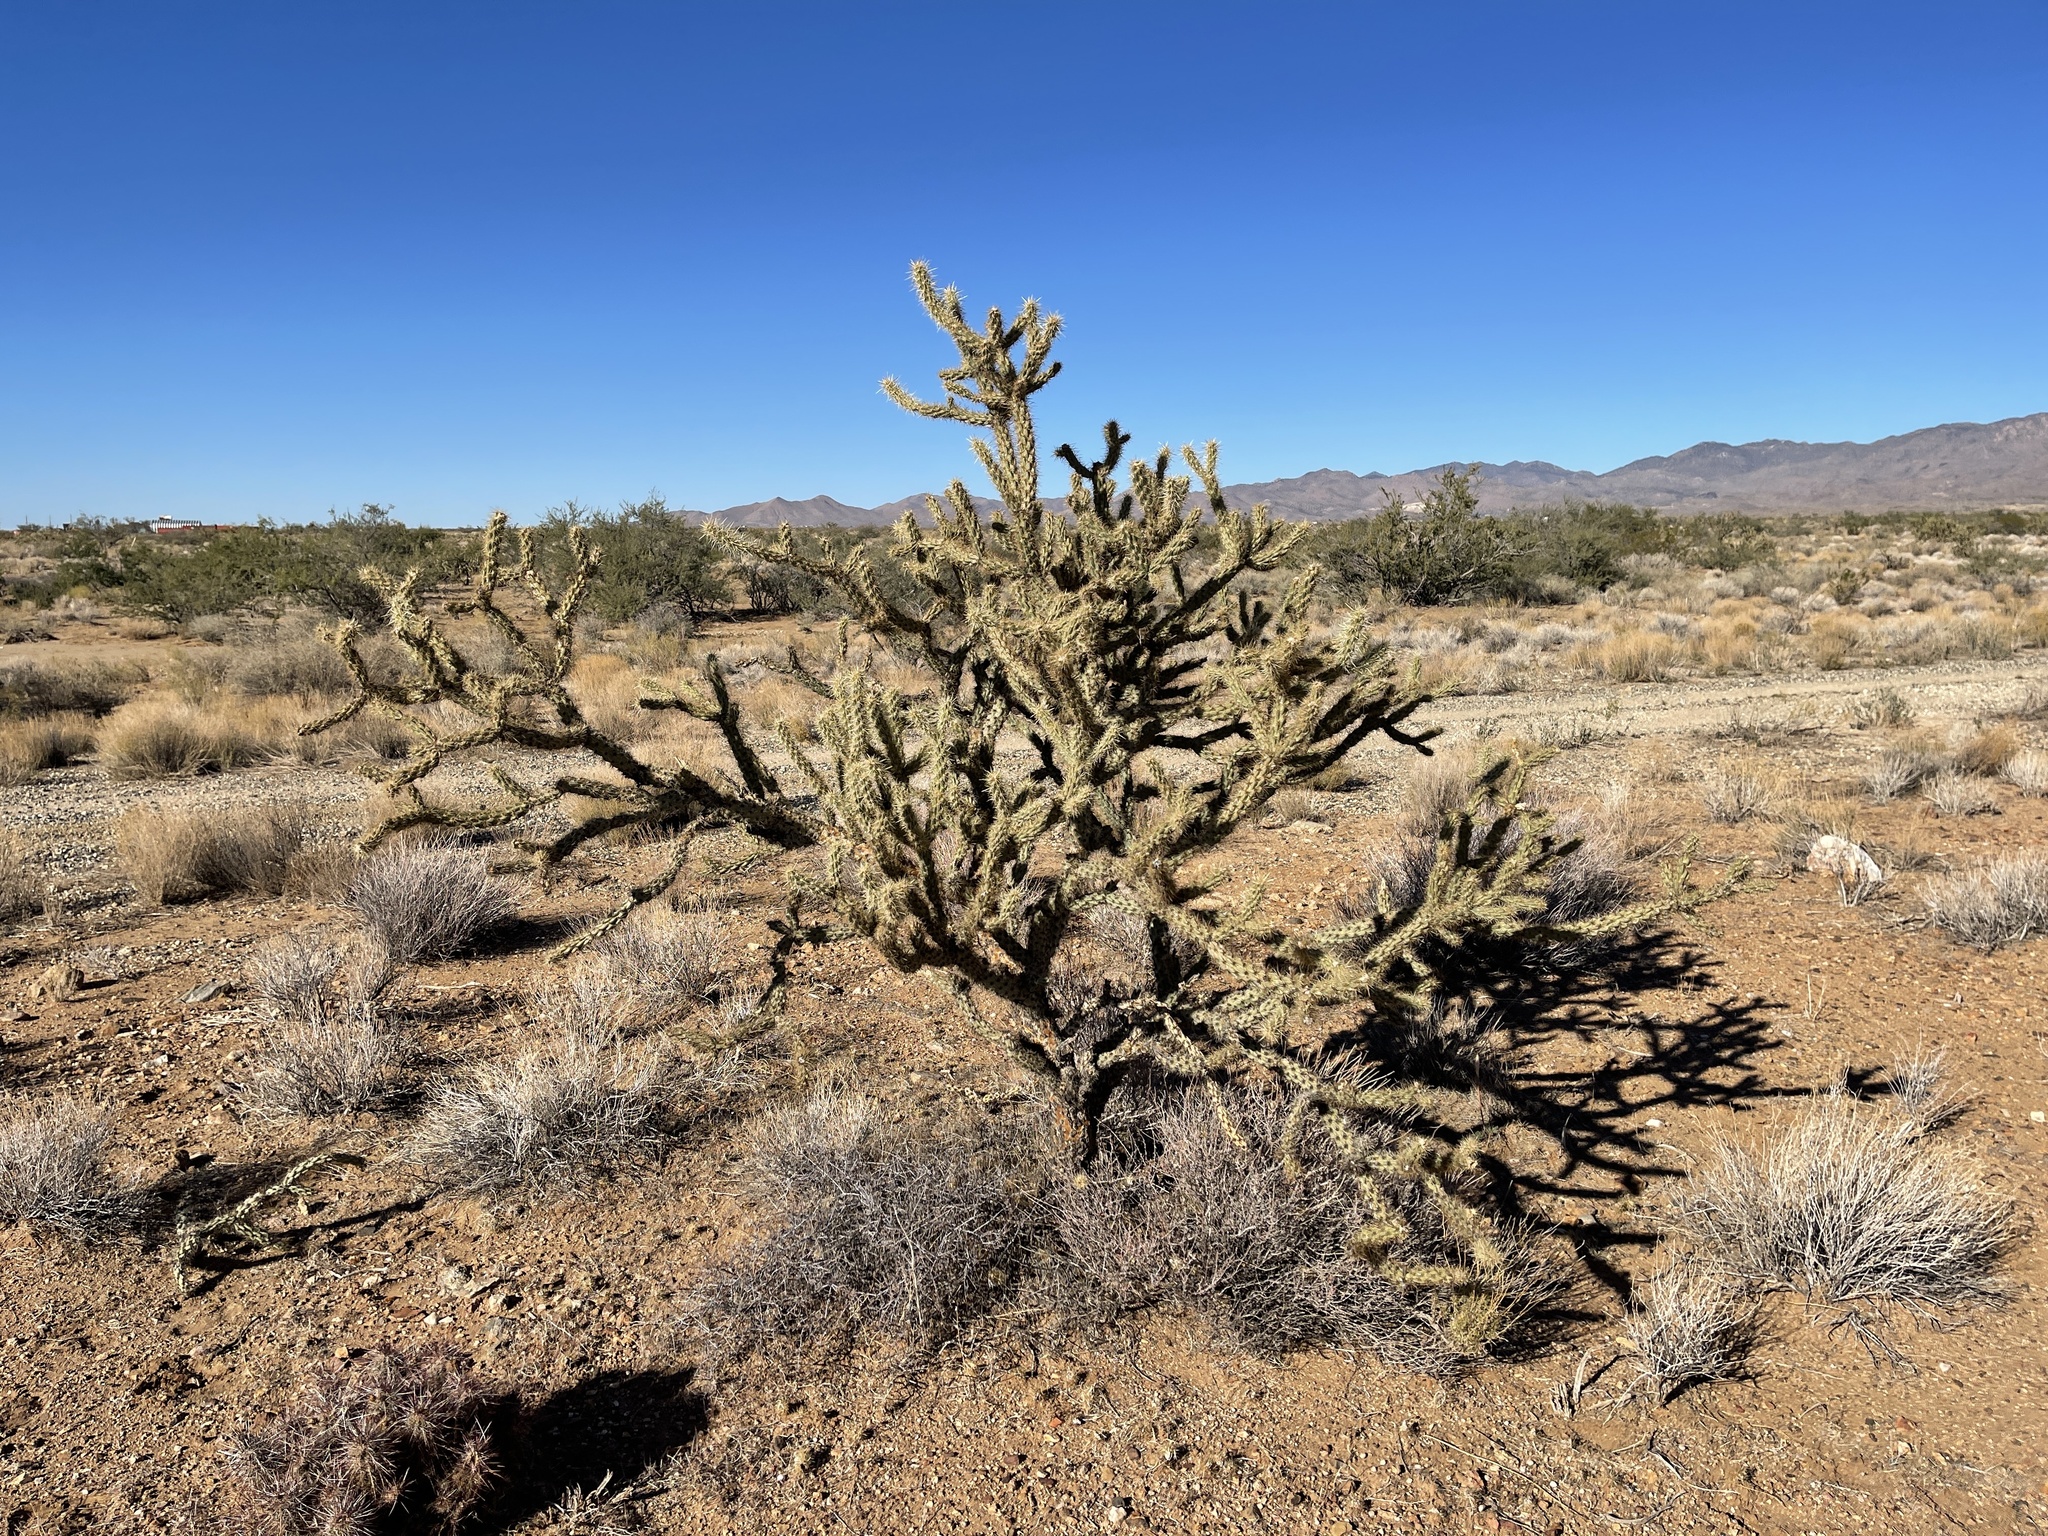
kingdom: Plantae
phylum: Tracheophyta
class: Magnoliopsida
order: Caryophyllales
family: Cactaceae
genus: Cylindropuntia
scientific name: Cylindropuntia acanthocarpa
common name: Buckhorn cholla
